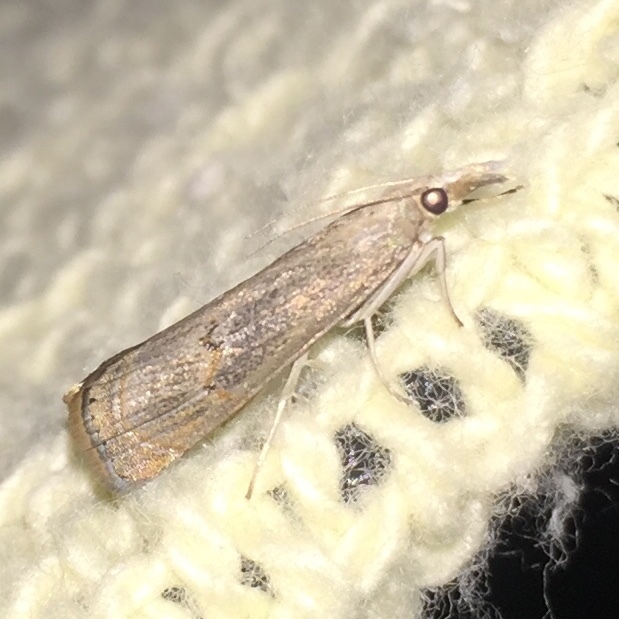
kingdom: Animalia
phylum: Arthropoda
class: Insecta
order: Lepidoptera
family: Crambidae
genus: Parapediasia
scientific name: Parapediasia teterellus
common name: Bluegrass webworm moth
